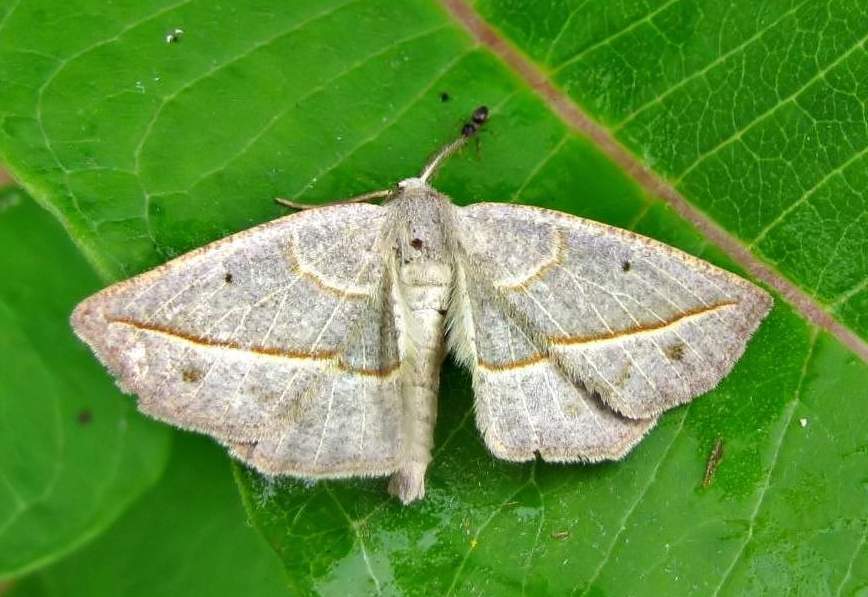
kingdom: Animalia
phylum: Arthropoda
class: Insecta
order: Lepidoptera
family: Geometridae
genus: Eusarca
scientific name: Eusarca confusaria
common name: Confused eusarca
